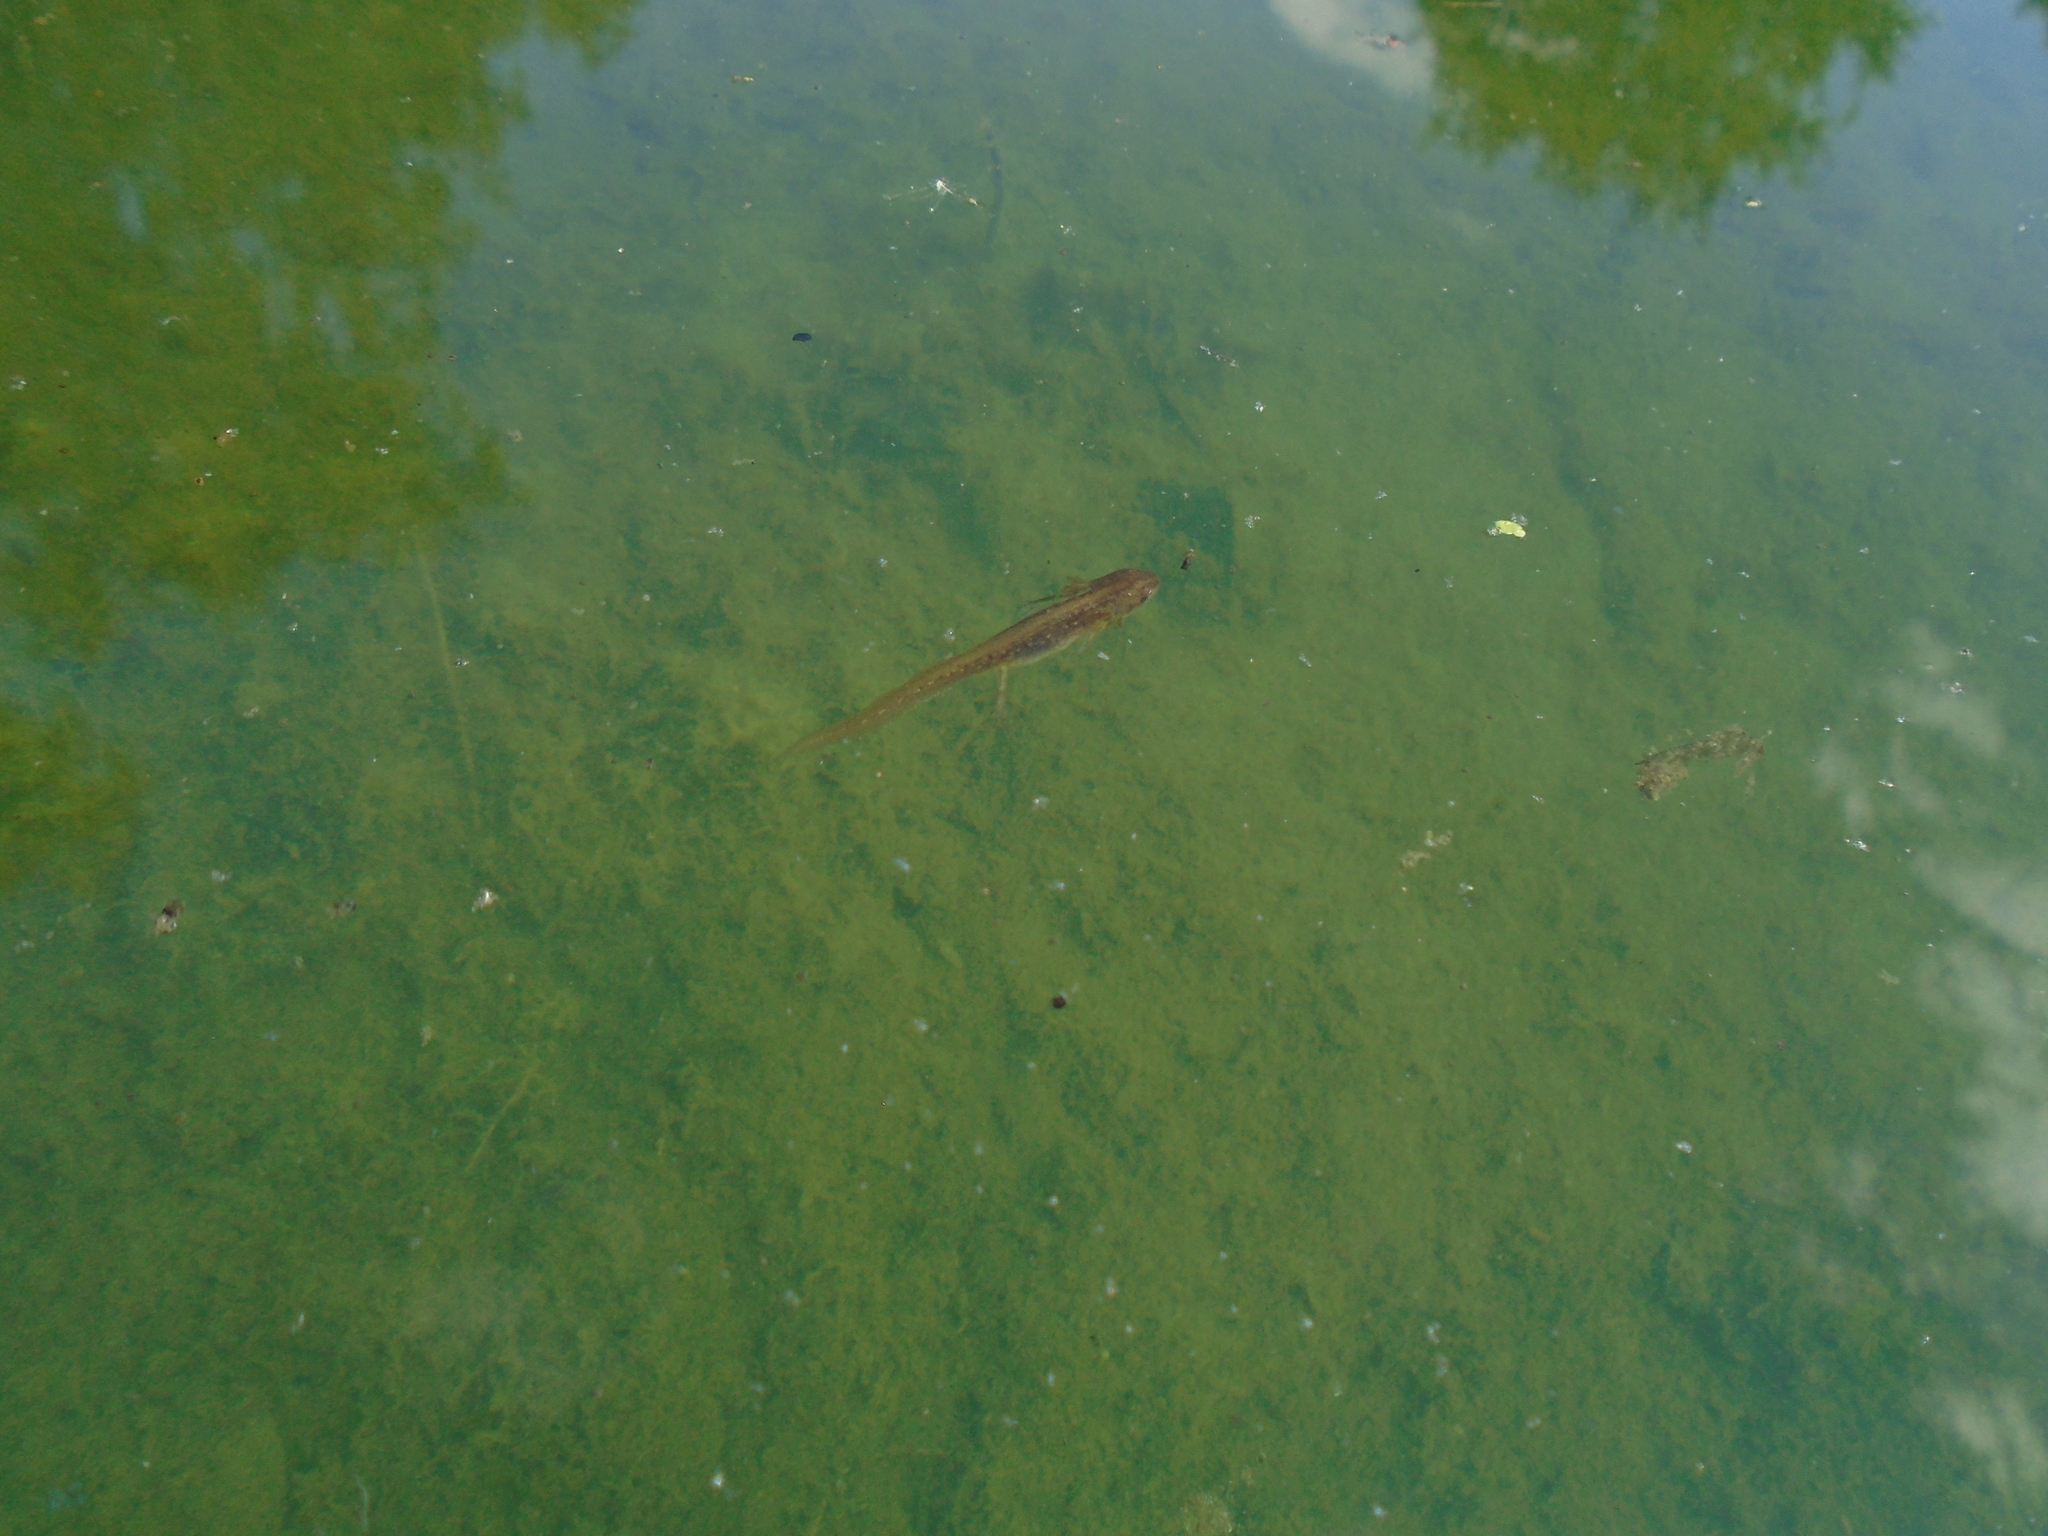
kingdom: Animalia
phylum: Chordata
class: Amphibia
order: Caudata
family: Salamandridae
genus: Lissotriton
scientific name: Lissotriton helveticus
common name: Palmate newt
